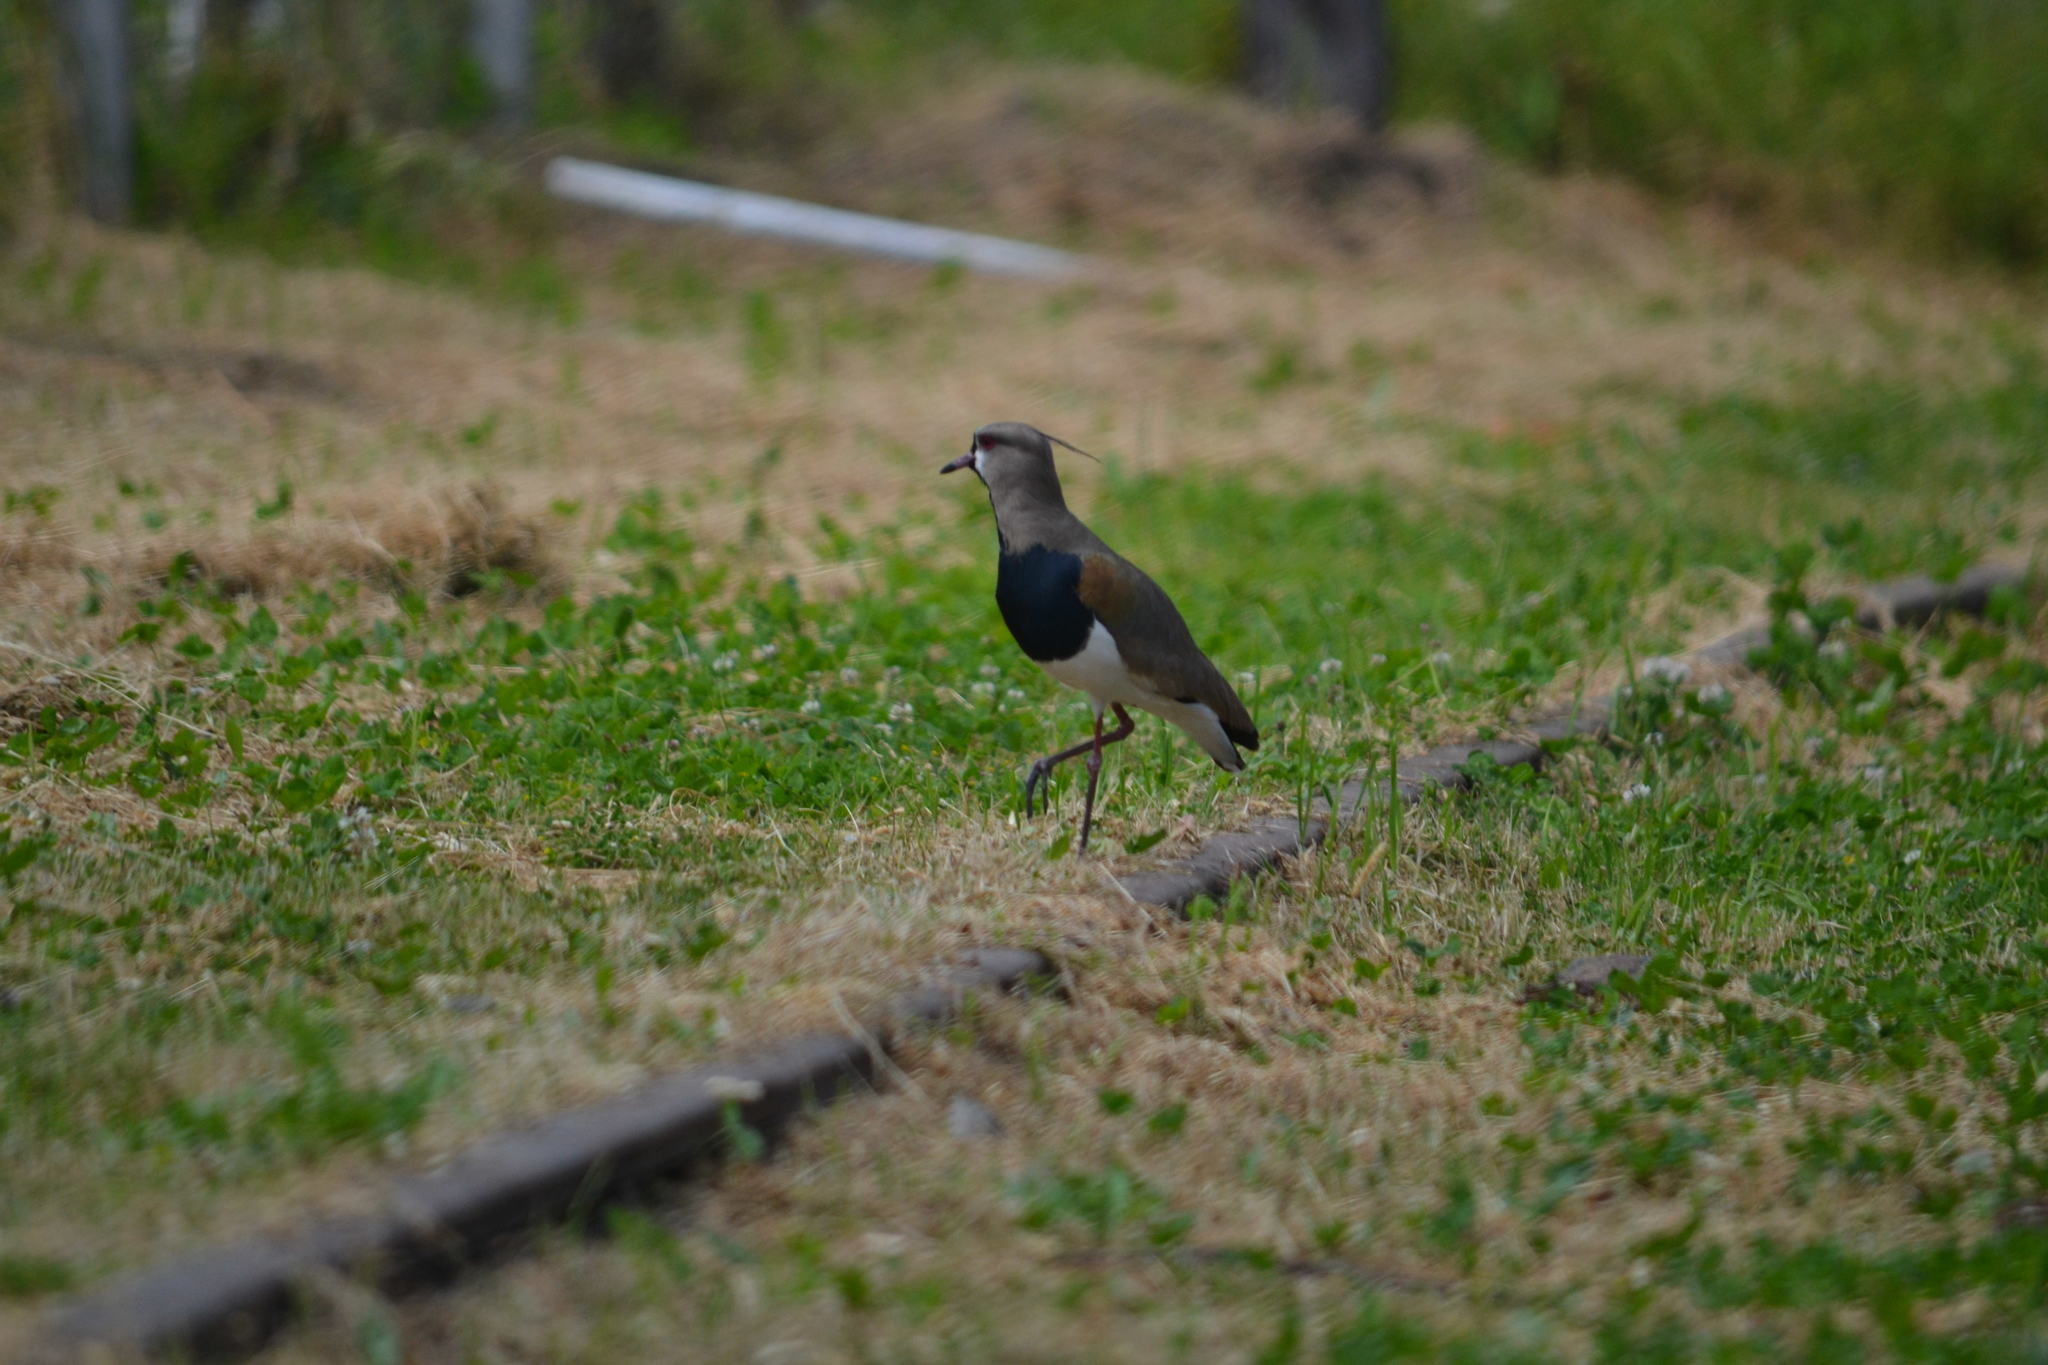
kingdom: Animalia
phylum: Chordata
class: Aves
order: Charadriiformes
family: Charadriidae
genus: Vanellus
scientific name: Vanellus chilensis
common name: Southern lapwing
